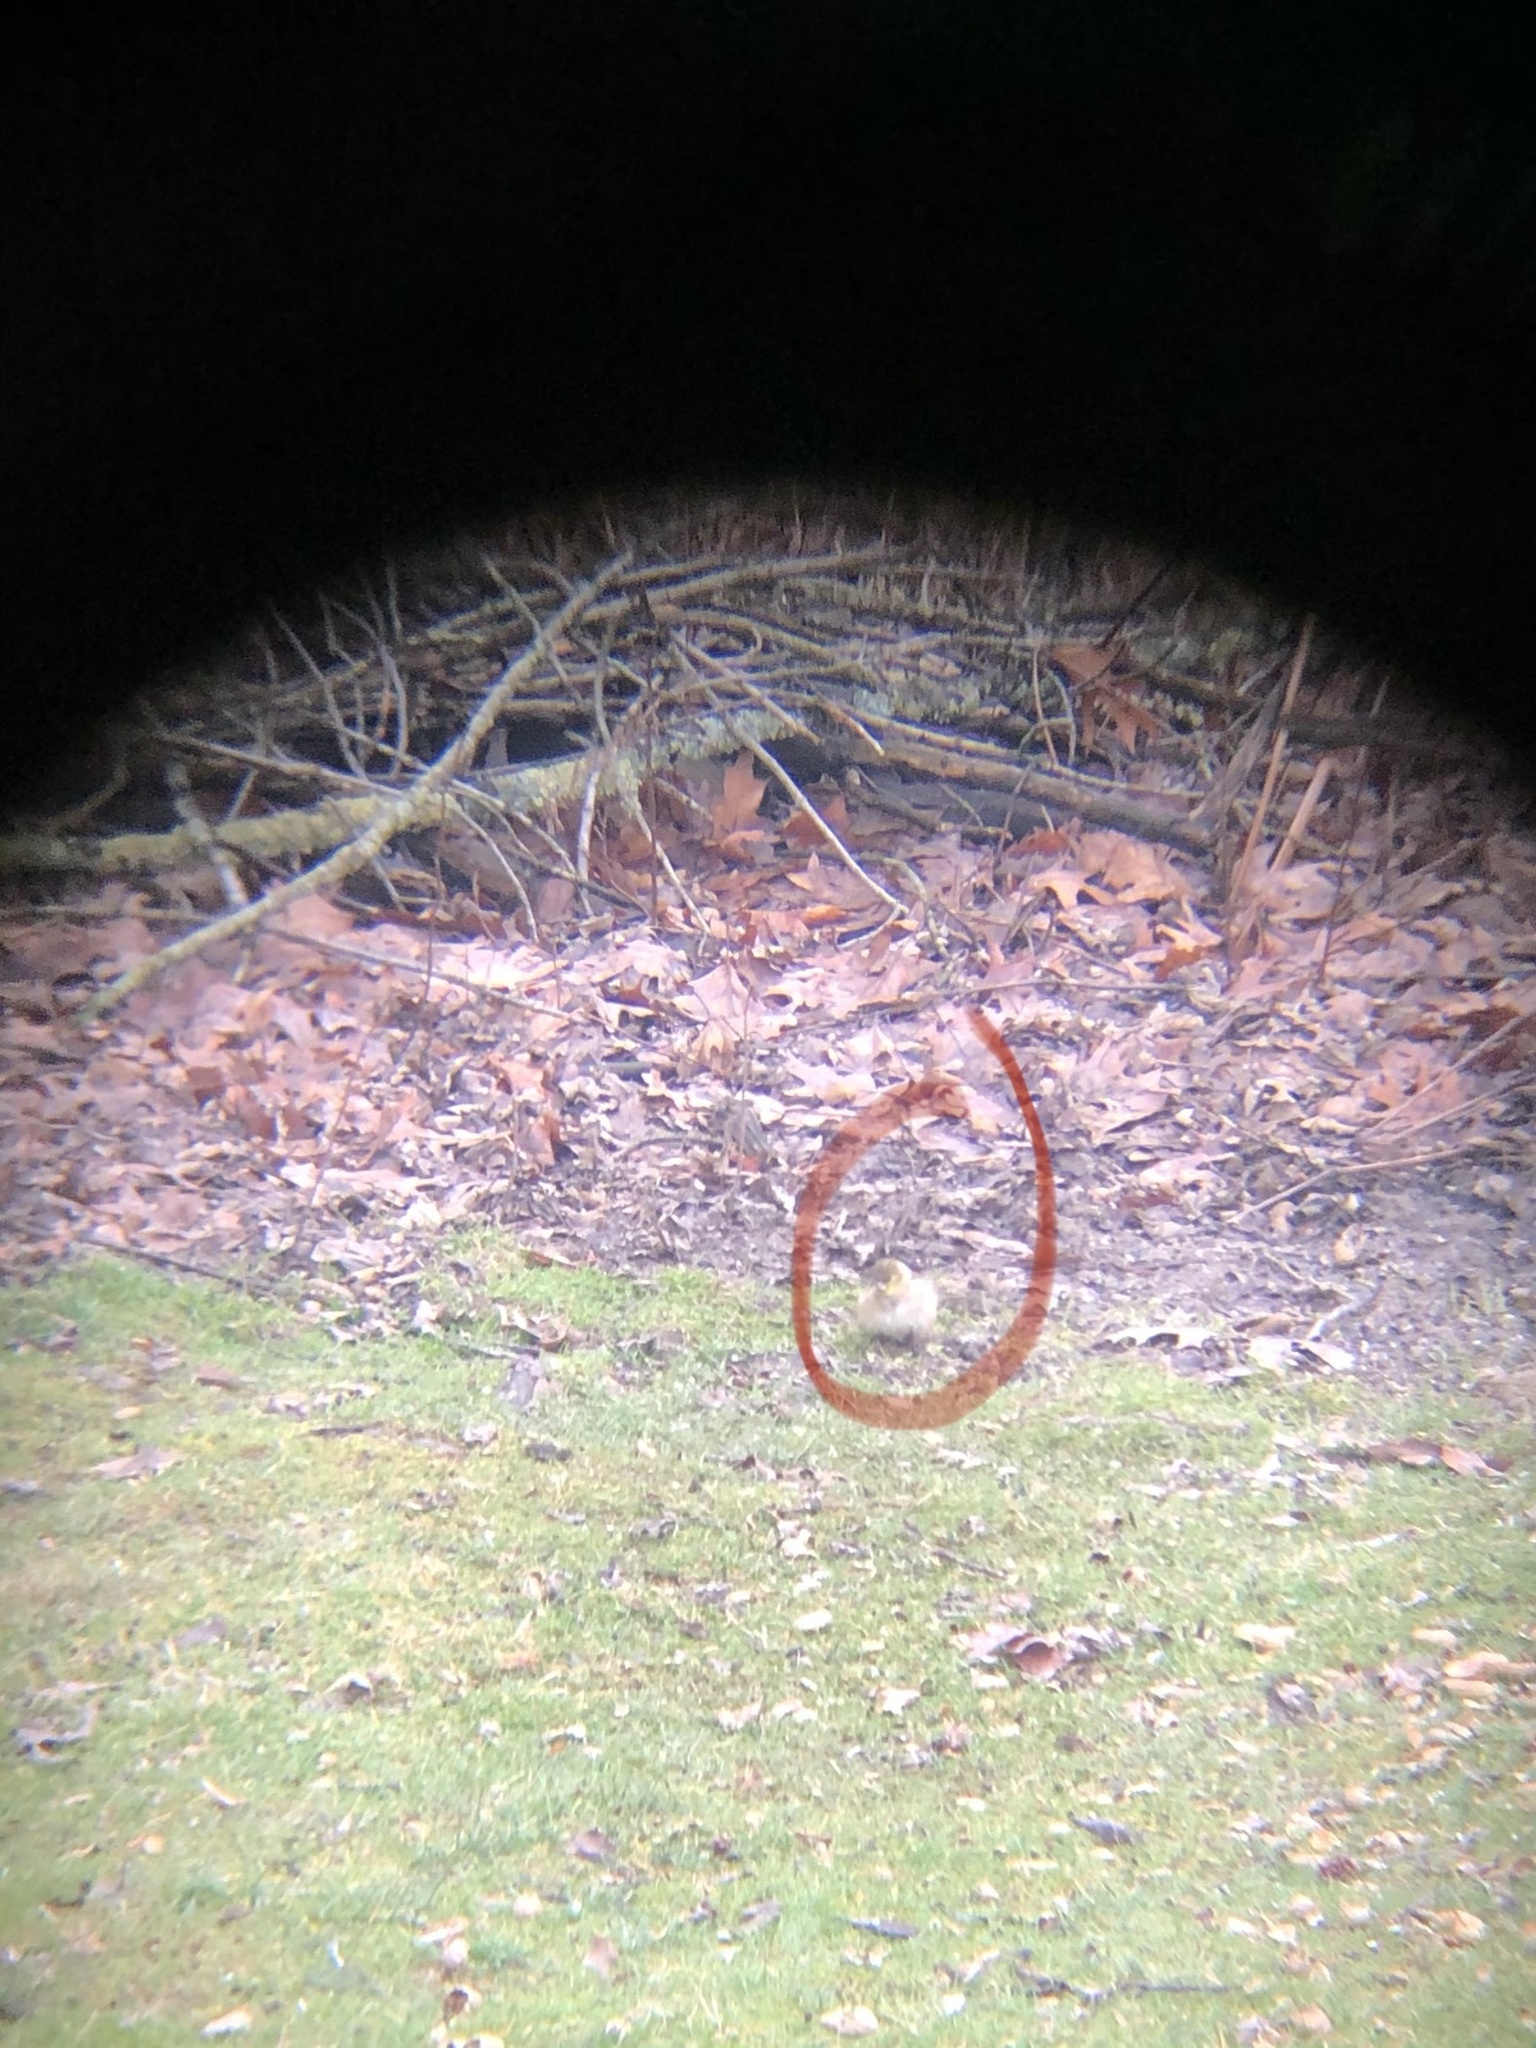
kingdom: Animalia
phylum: Chordata
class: Aves
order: Passeriformes
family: Fringillidae
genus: Spinus
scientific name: Spinus tristis
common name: American goldfinch
